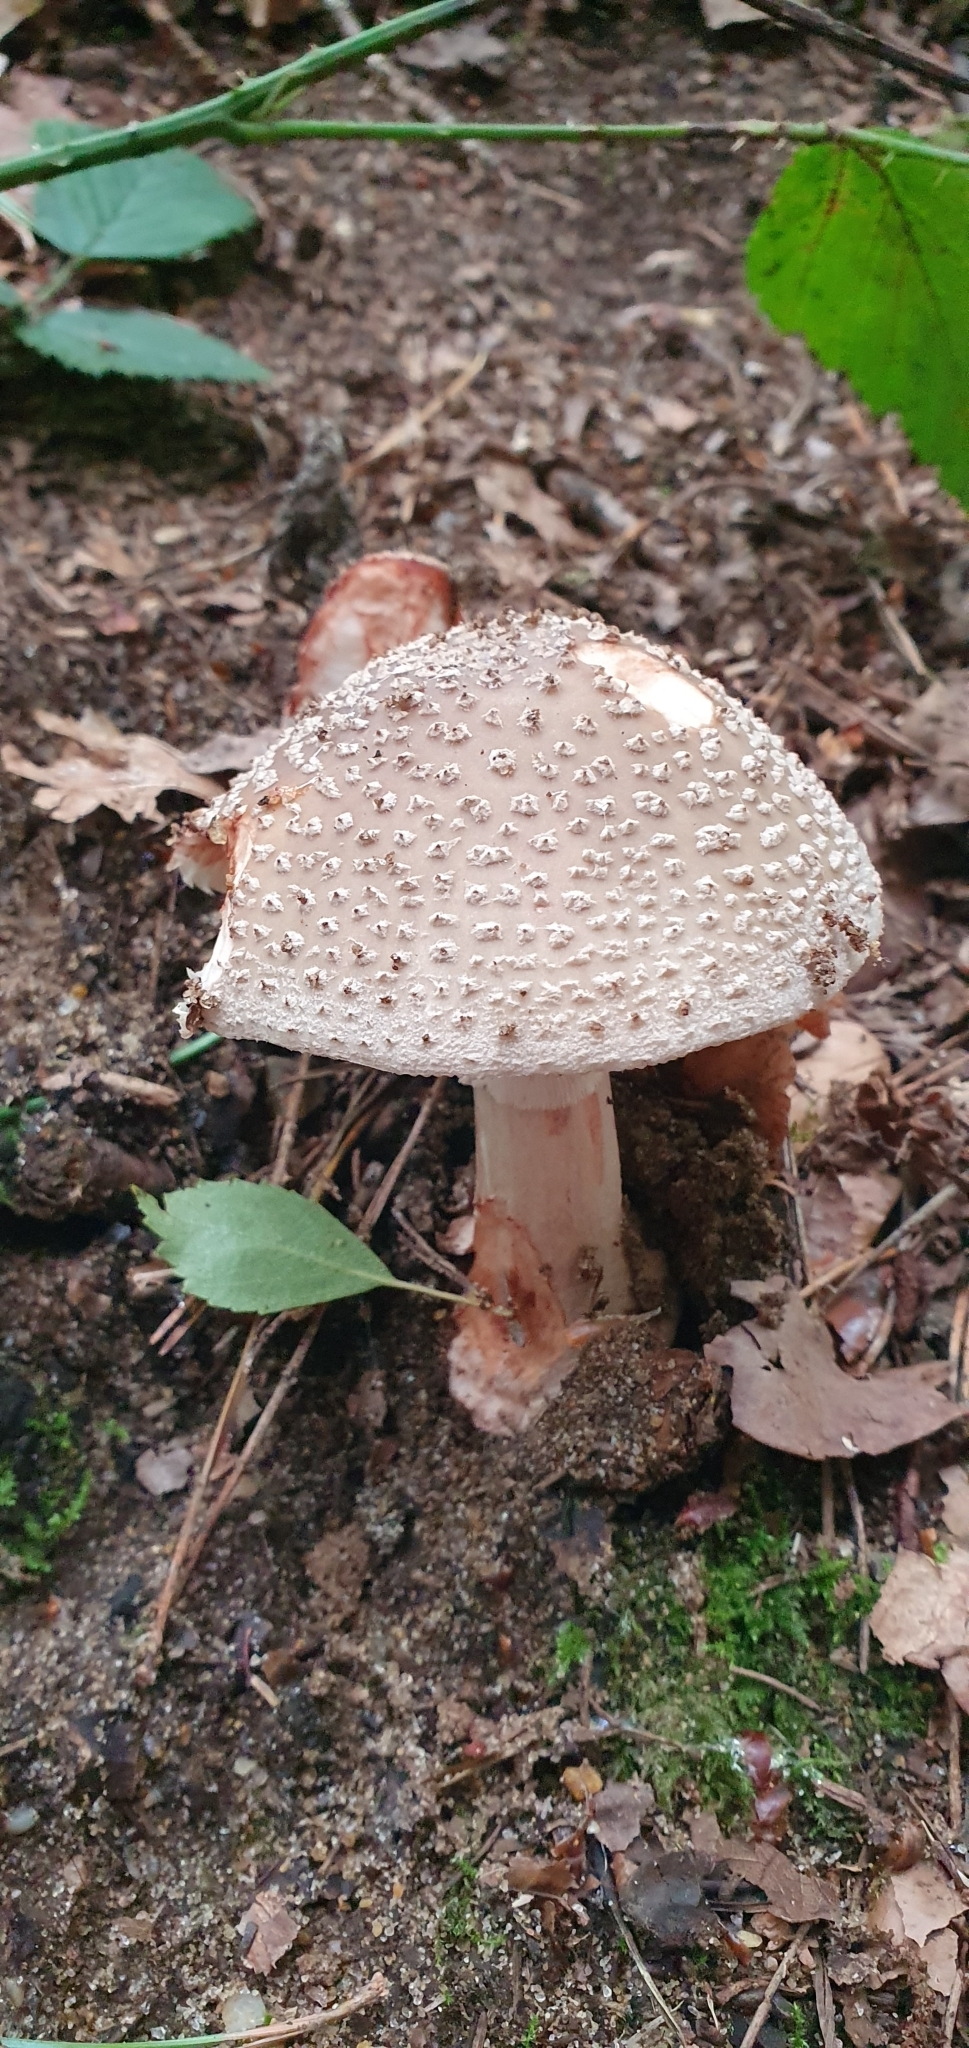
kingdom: Fungi
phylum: Basidiomycota
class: Agaricomycetes
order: Agaricales
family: Amanitaceae
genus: Amanita
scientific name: Amanita rubescens
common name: Blusher
